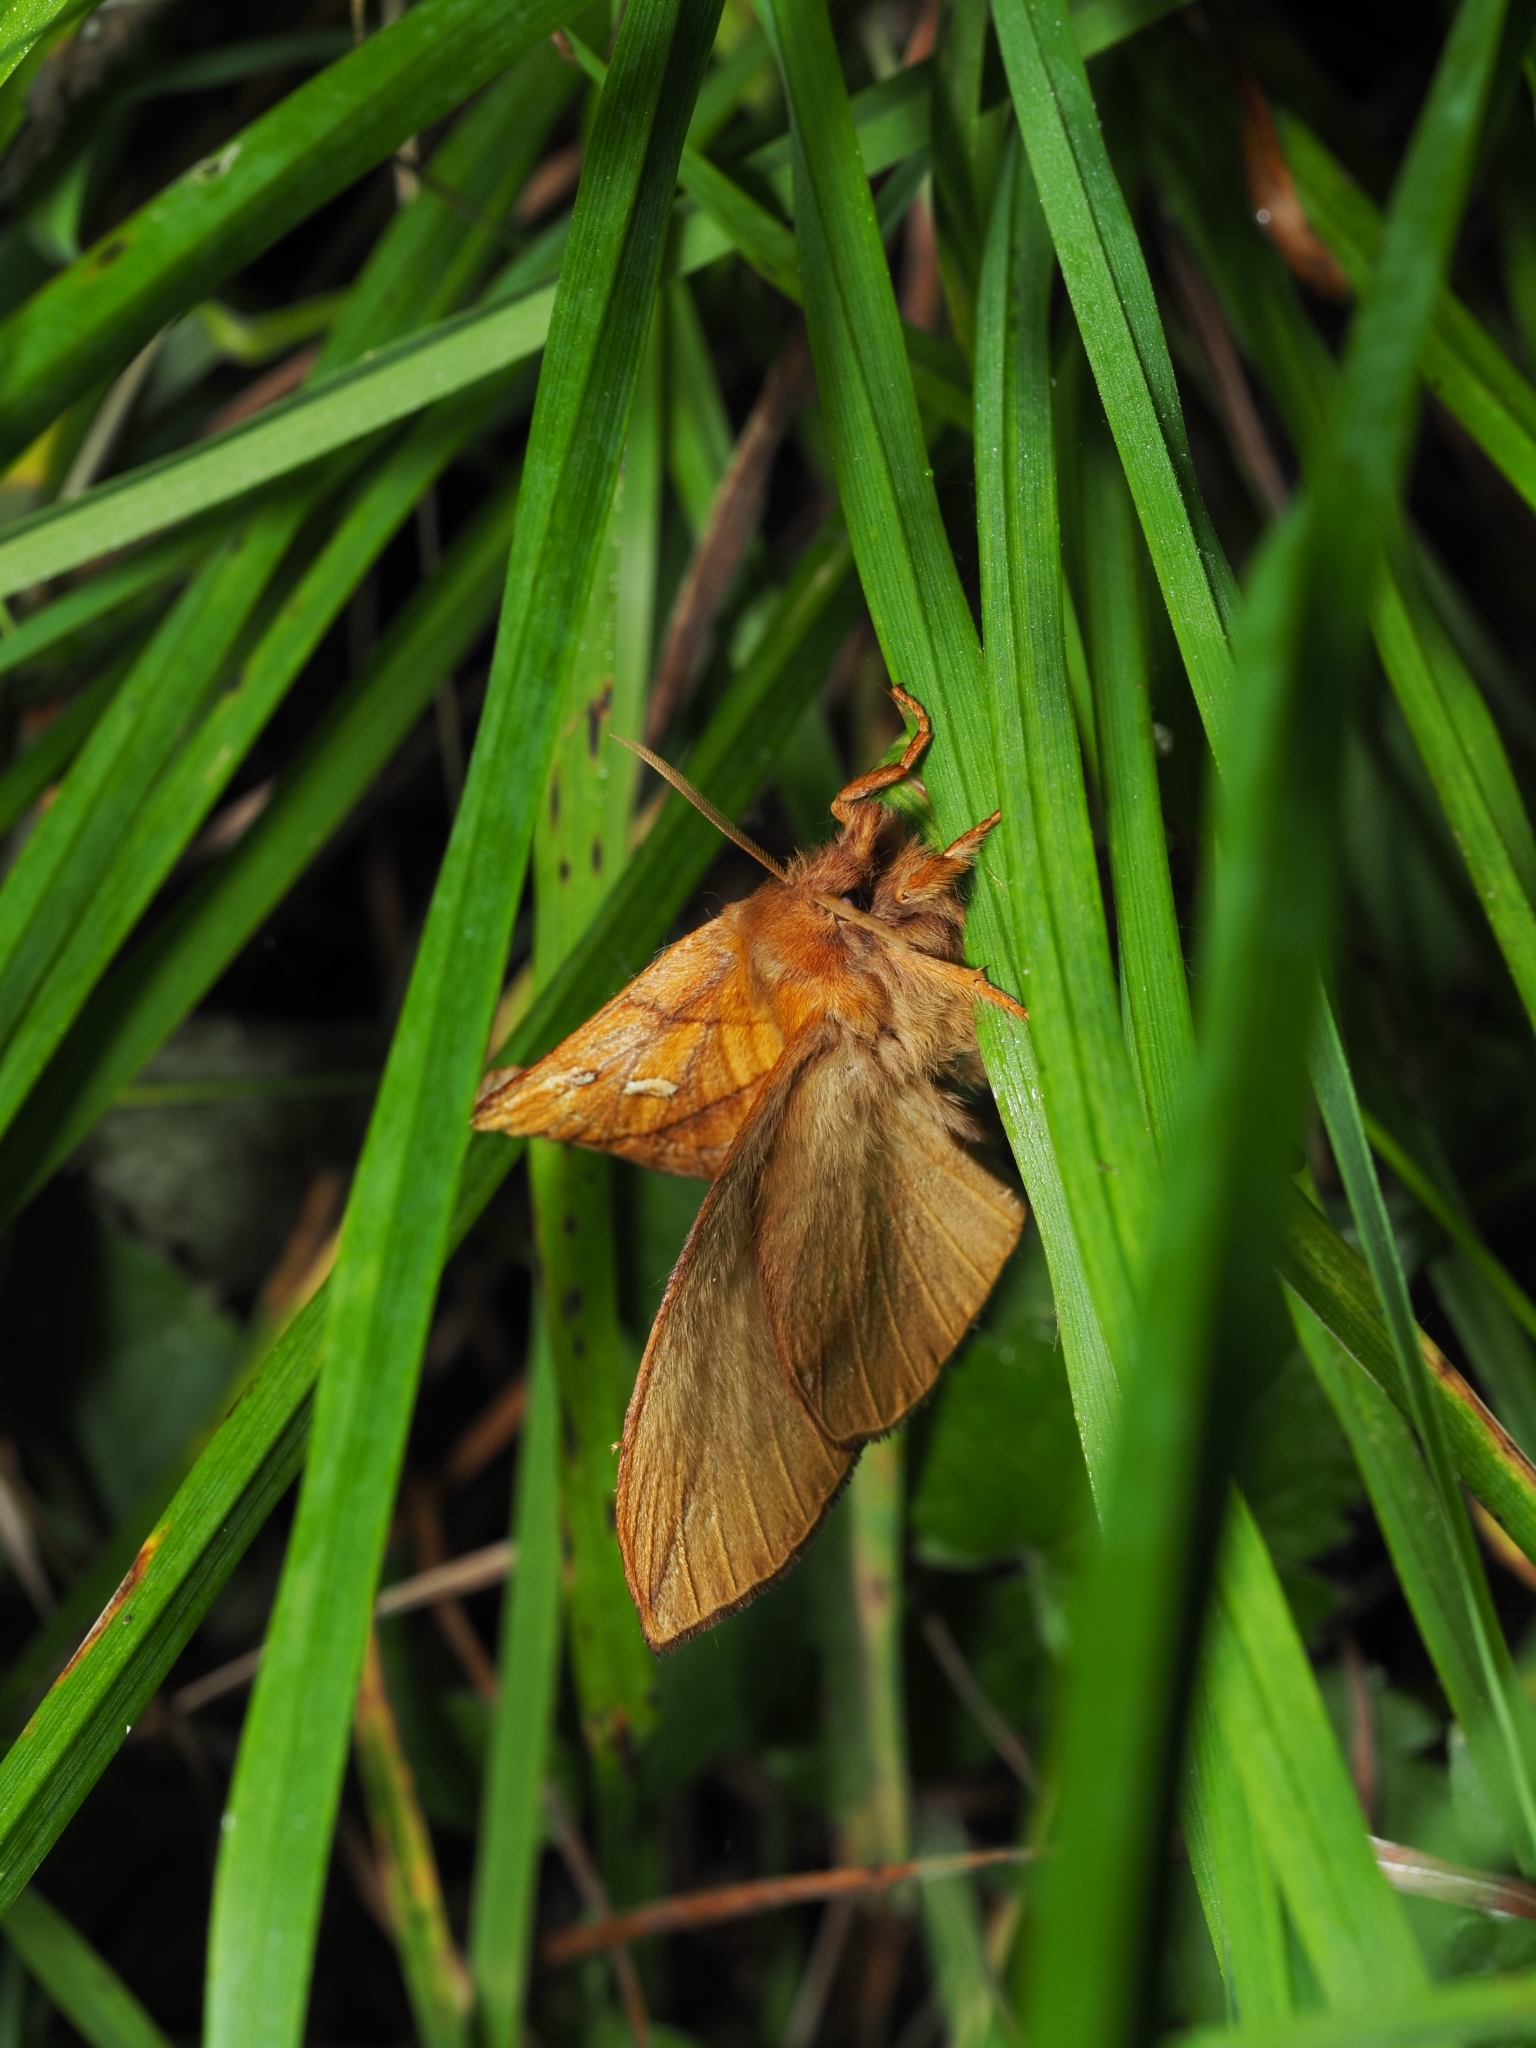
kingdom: Animalia
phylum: Arthropoda
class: Insecta
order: Lepidoptera
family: Lasiocampidae
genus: Euthrix
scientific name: Euthrix potatoria
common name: Drinker
